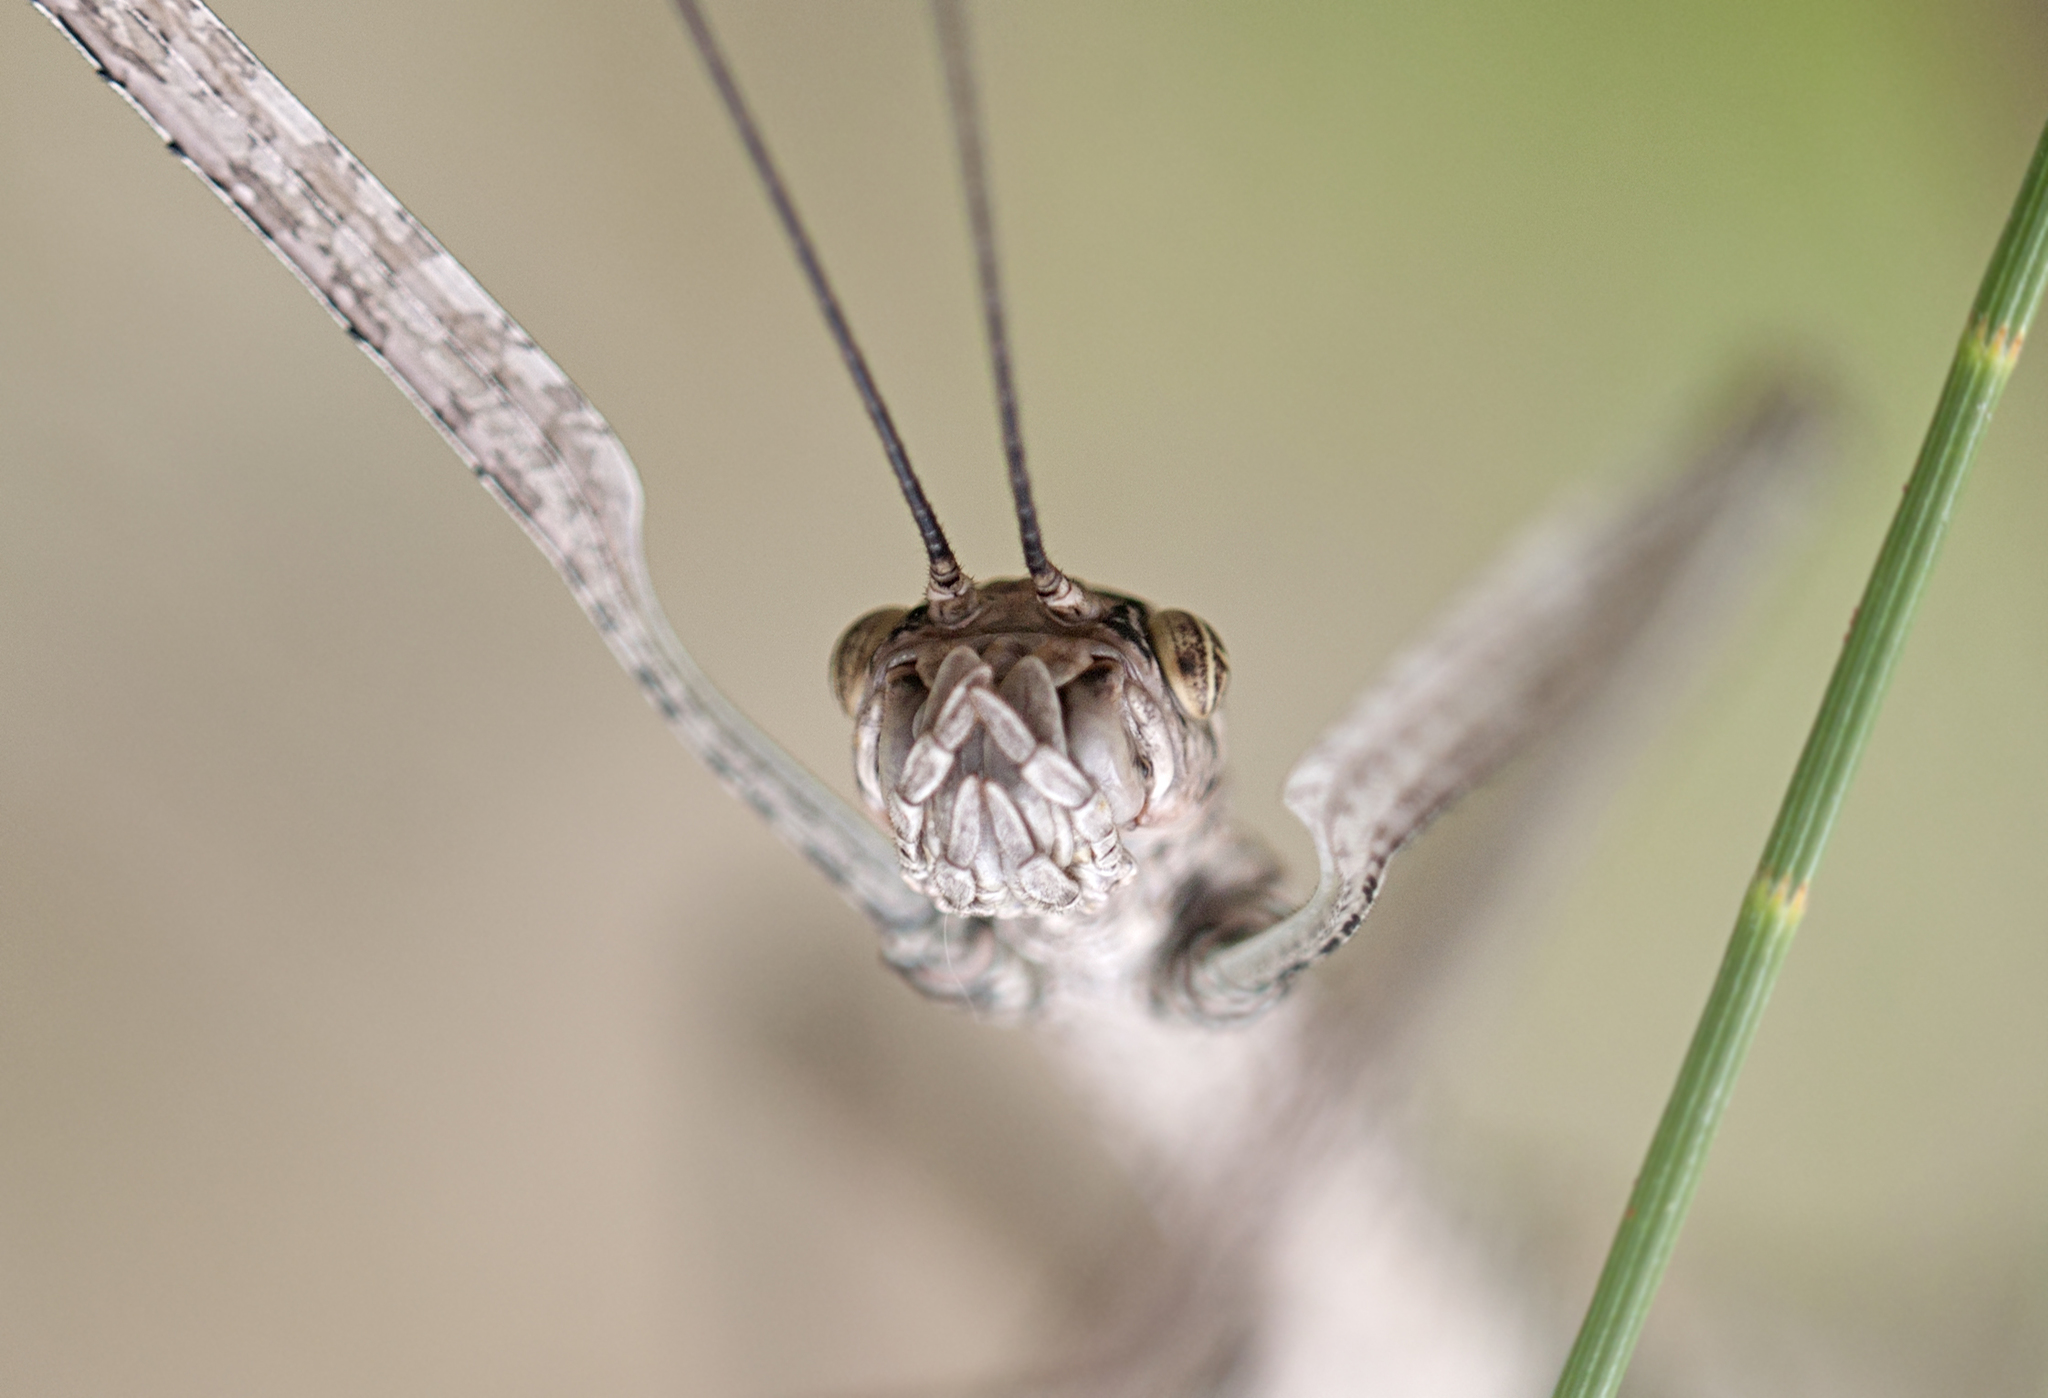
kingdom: Animalia
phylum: Arthropoda
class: Insecta
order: Phasmida
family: Phasmatidae
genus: Anchiale
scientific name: Anchiale austrotessulata
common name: Tessellated stick-insect
